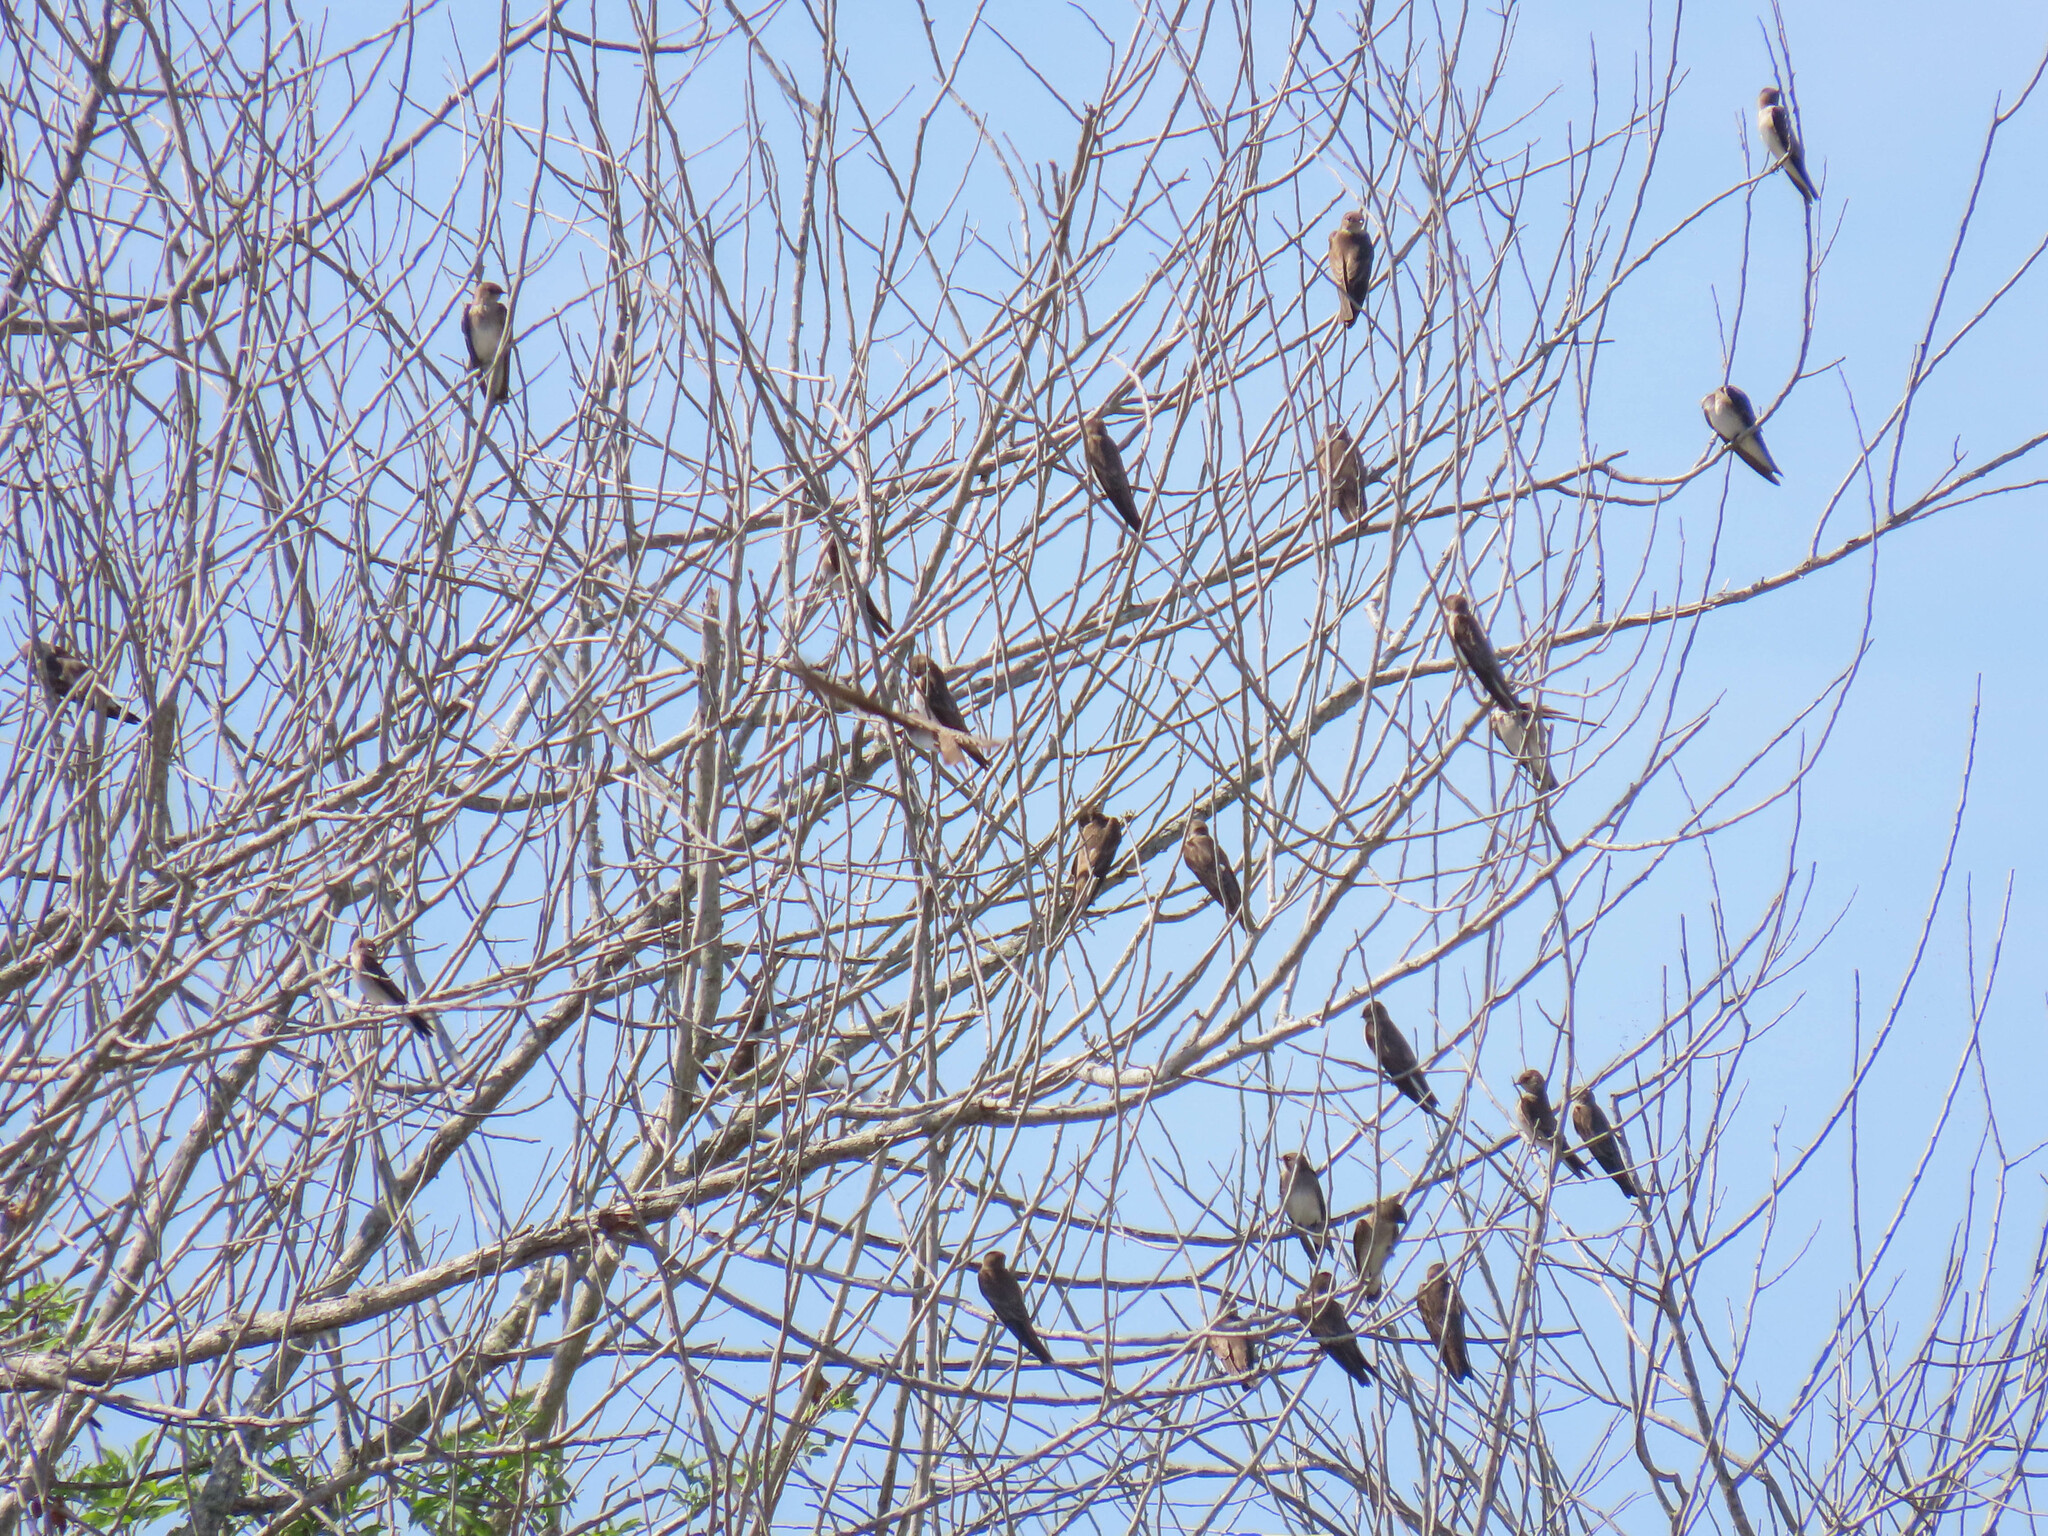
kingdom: Animalia
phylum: Chordata
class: Aves
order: Passeriformes
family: Hirundinidae
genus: Stelgidopteryx
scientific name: Stelgidopteryx serripennis
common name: Northern rough-winged swallow
